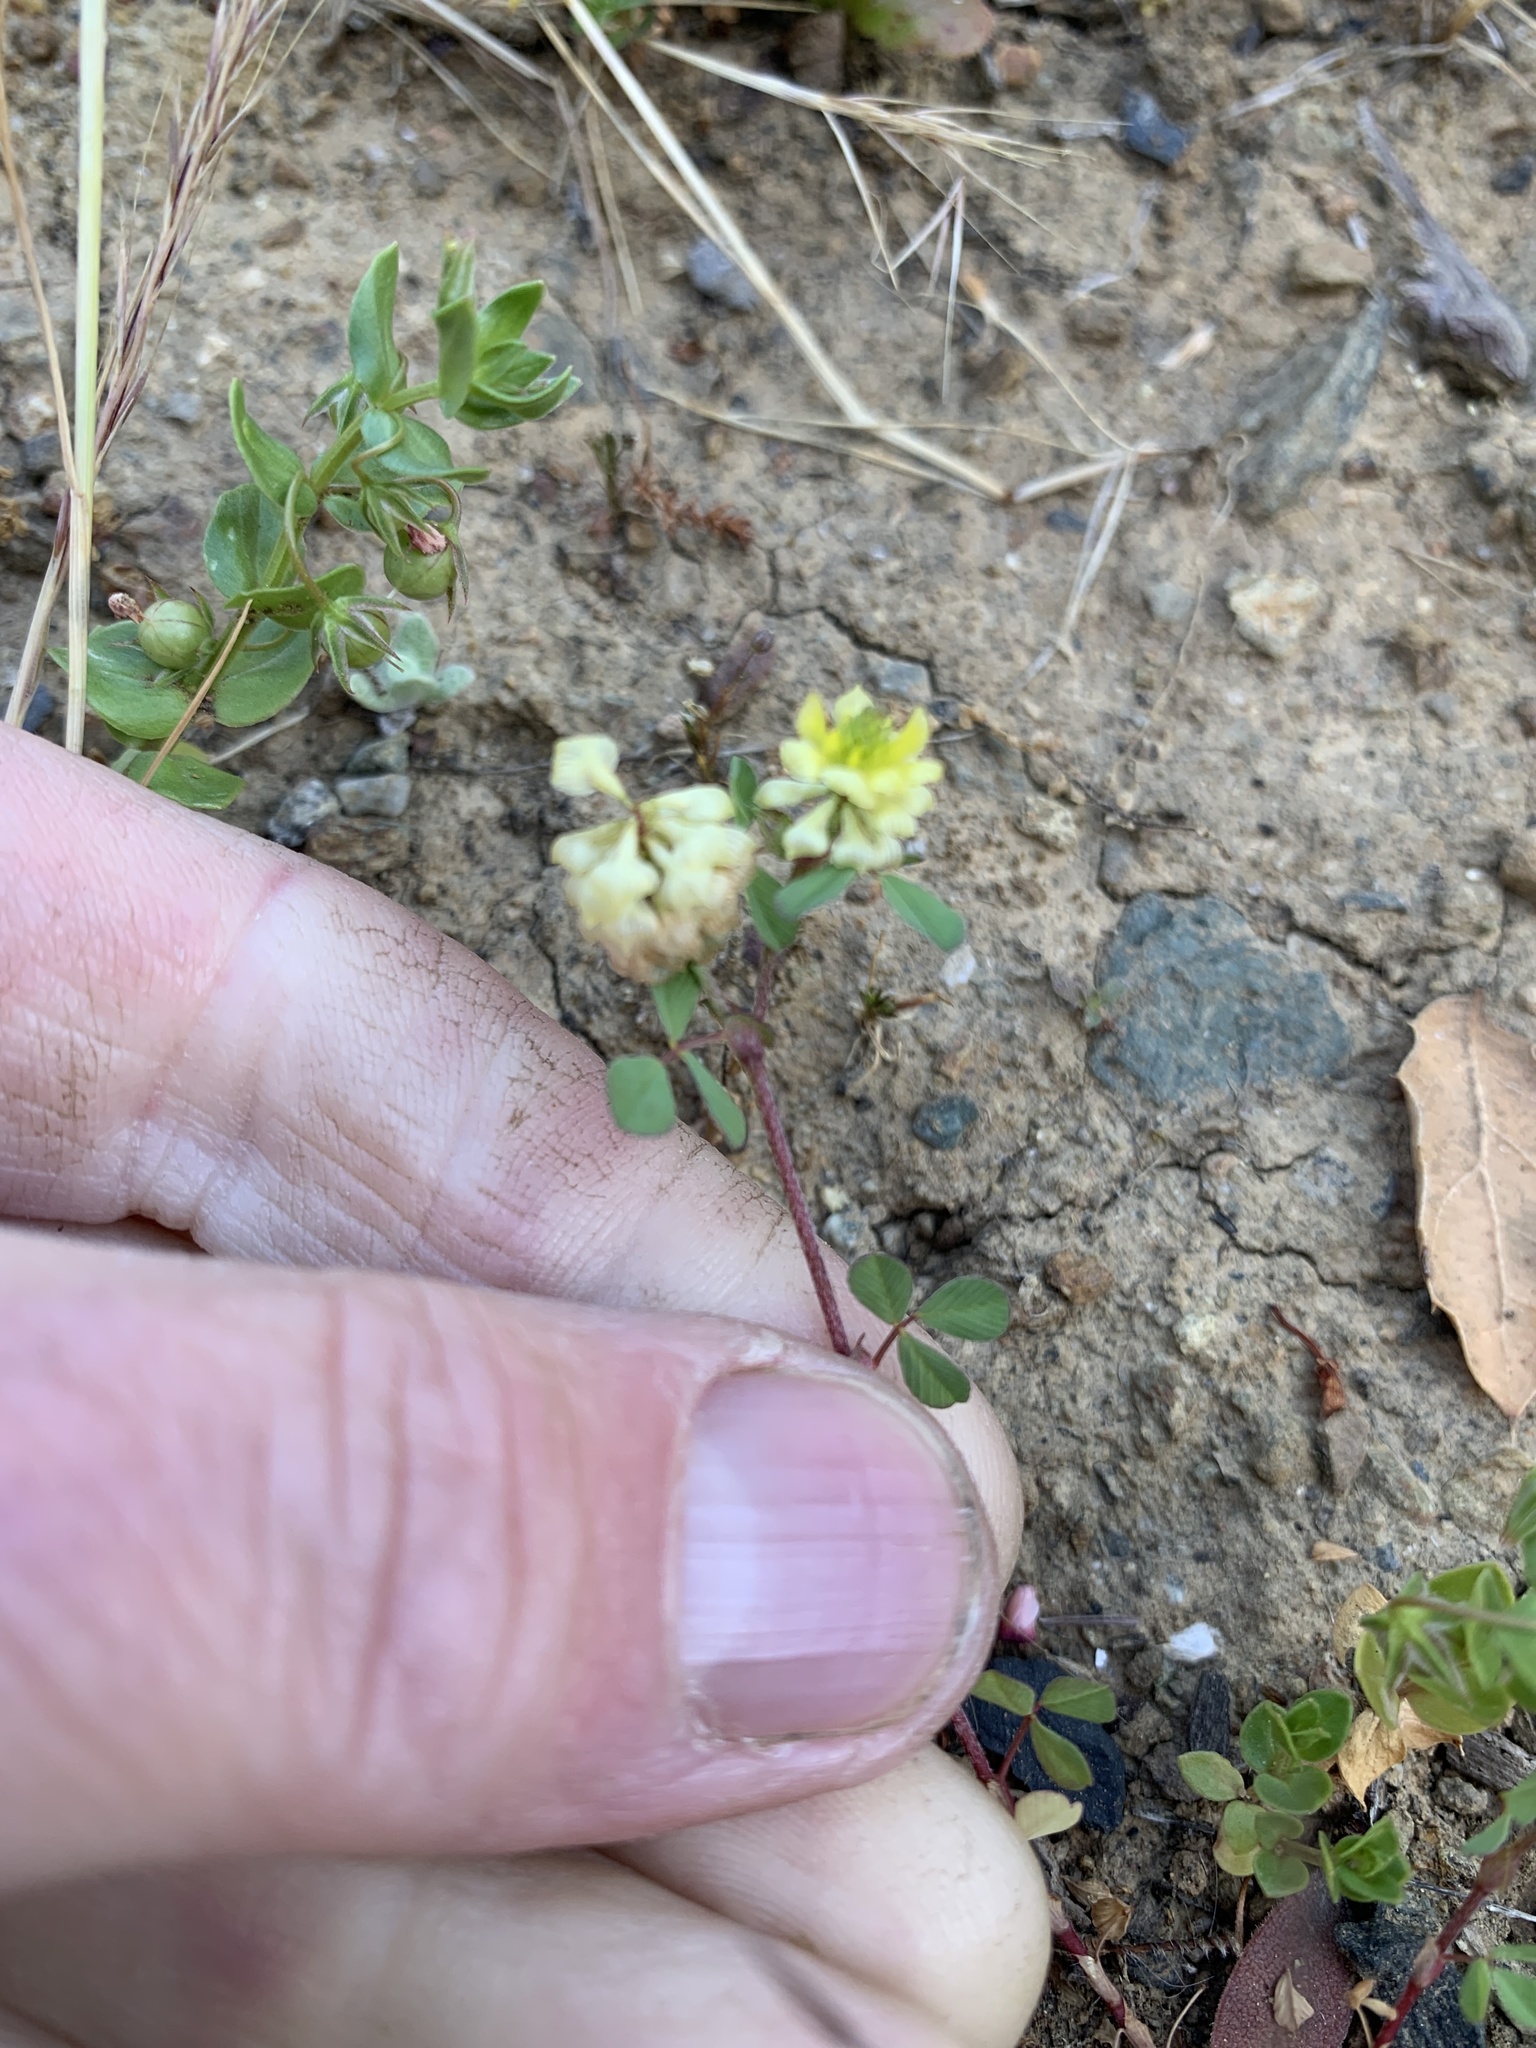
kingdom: Plantae
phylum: Tracheophyta
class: Magnoliopsida
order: Fabales
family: Fabaceae
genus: Trifolium
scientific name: Trifolium campestre
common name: Field clover
